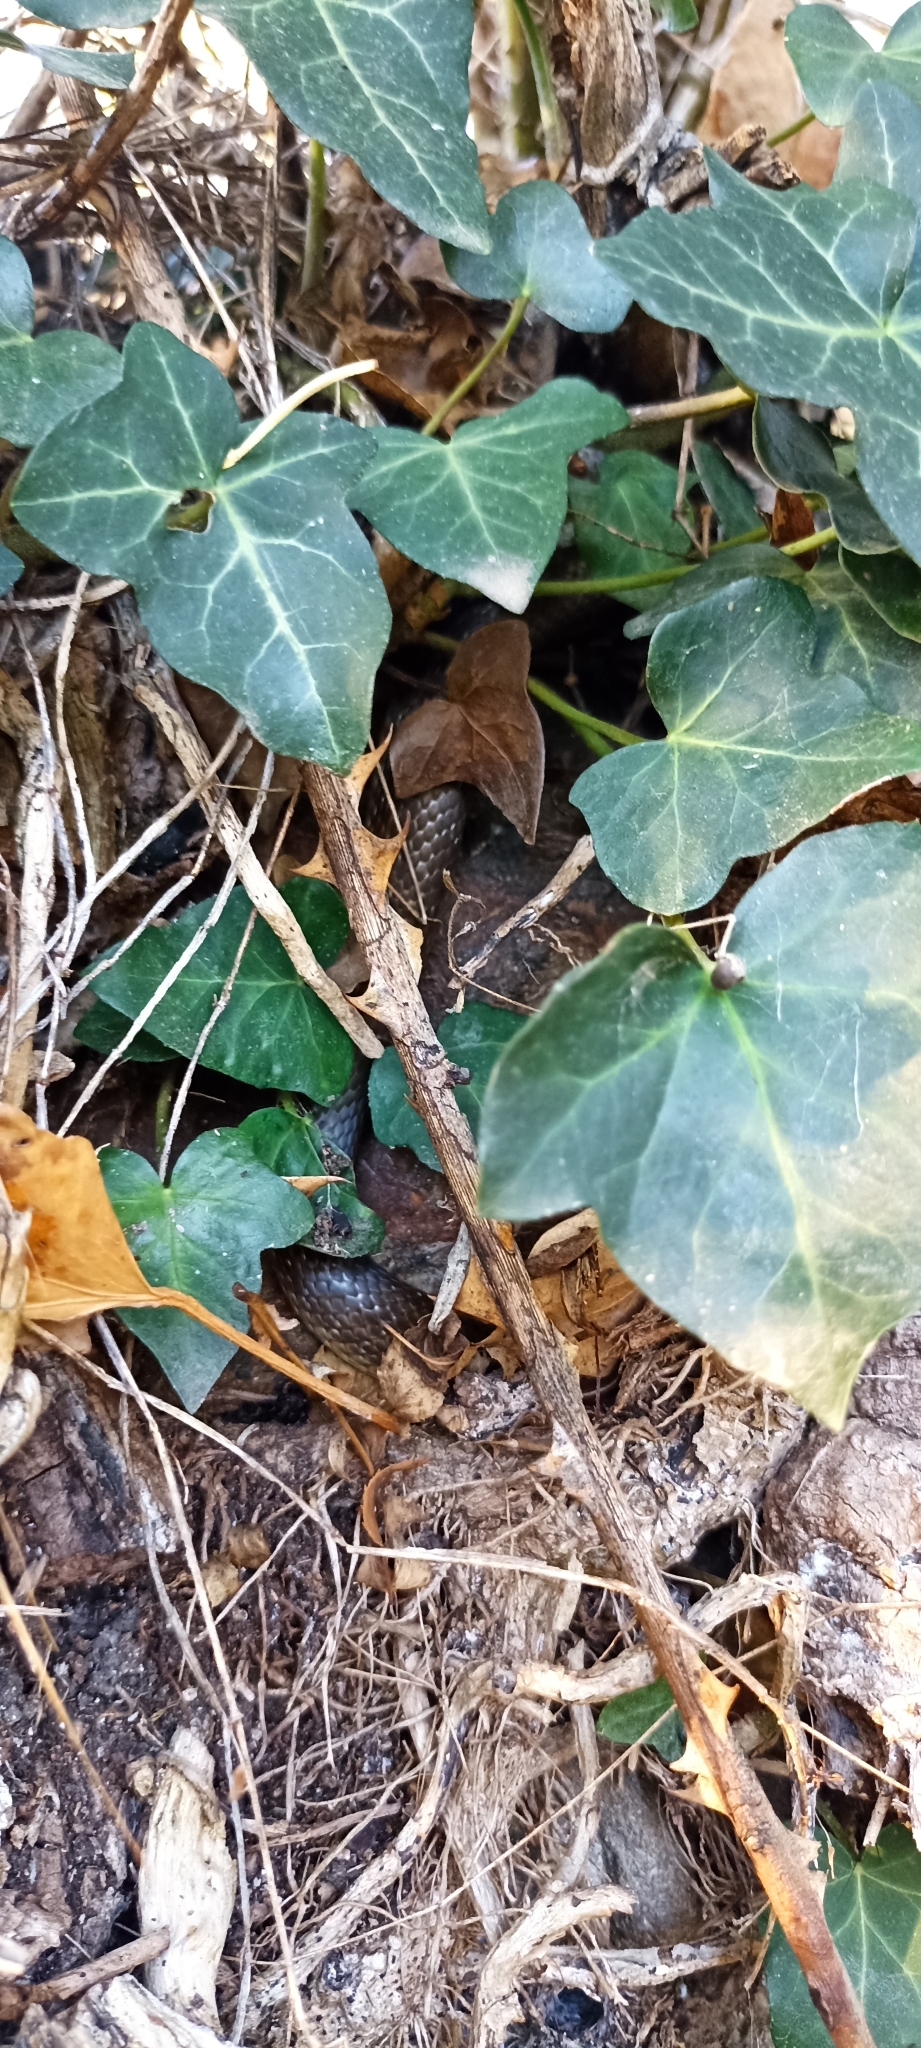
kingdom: Animalia
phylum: Chordata
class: Squamata
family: Colubridae
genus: Zamenis
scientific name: Zamenis longissimus
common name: Aesculapean snake
